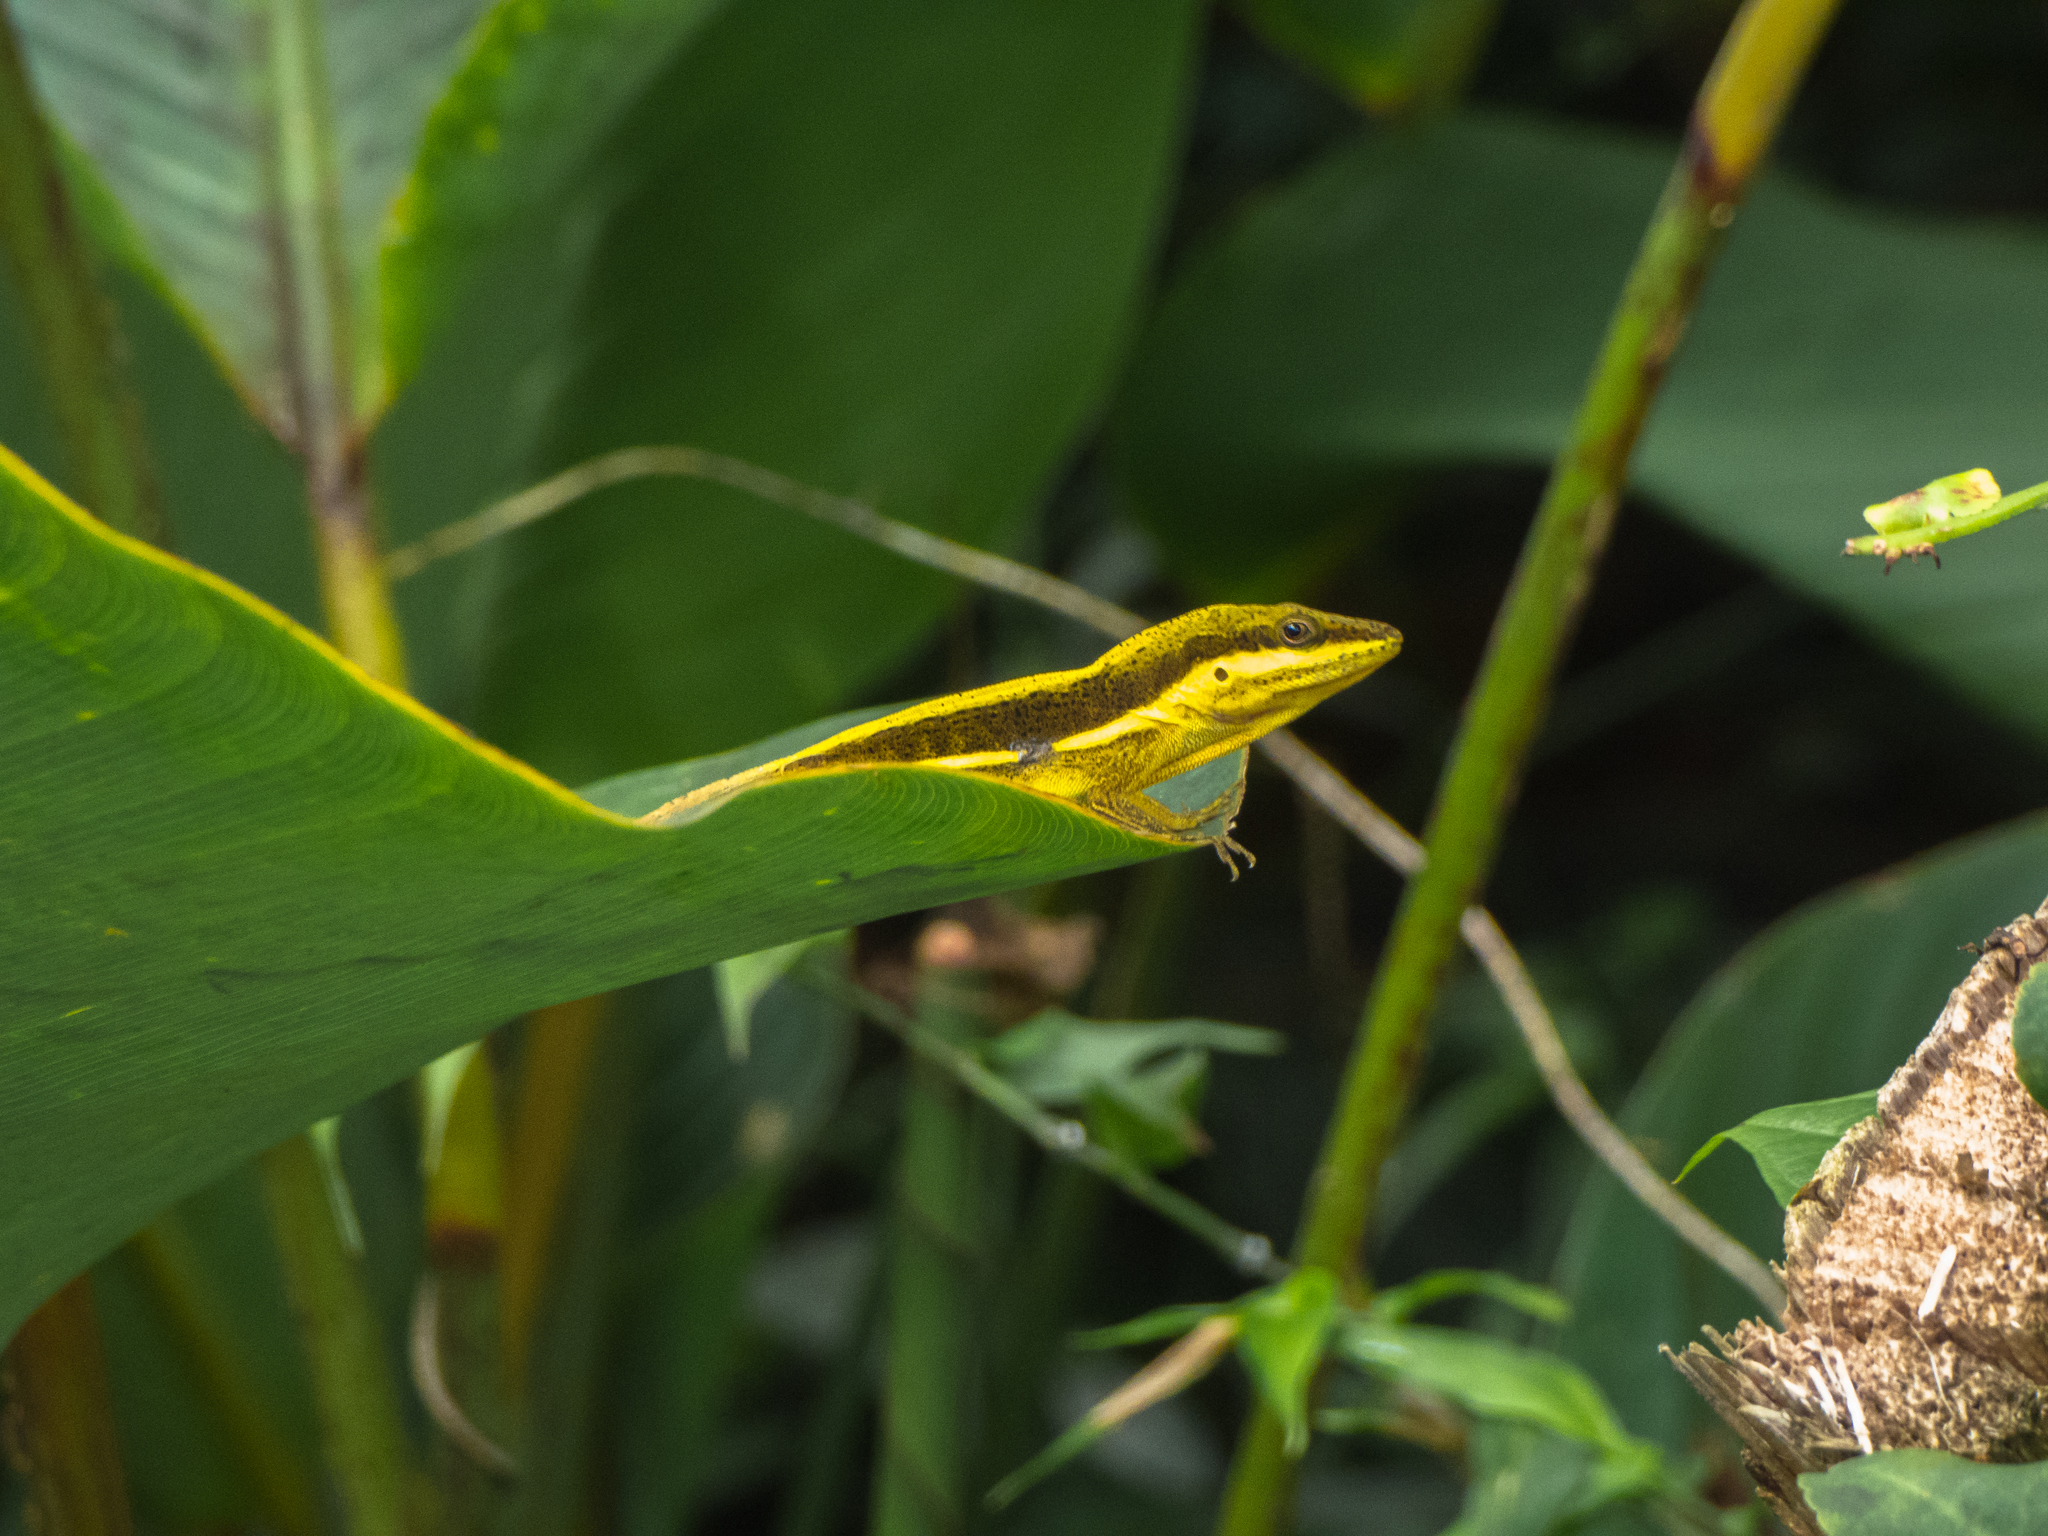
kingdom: Animalia
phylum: Chordata
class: Squamata
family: Dactyloidae
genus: Anolis
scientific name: Anolis krugi
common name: Krug's anole
